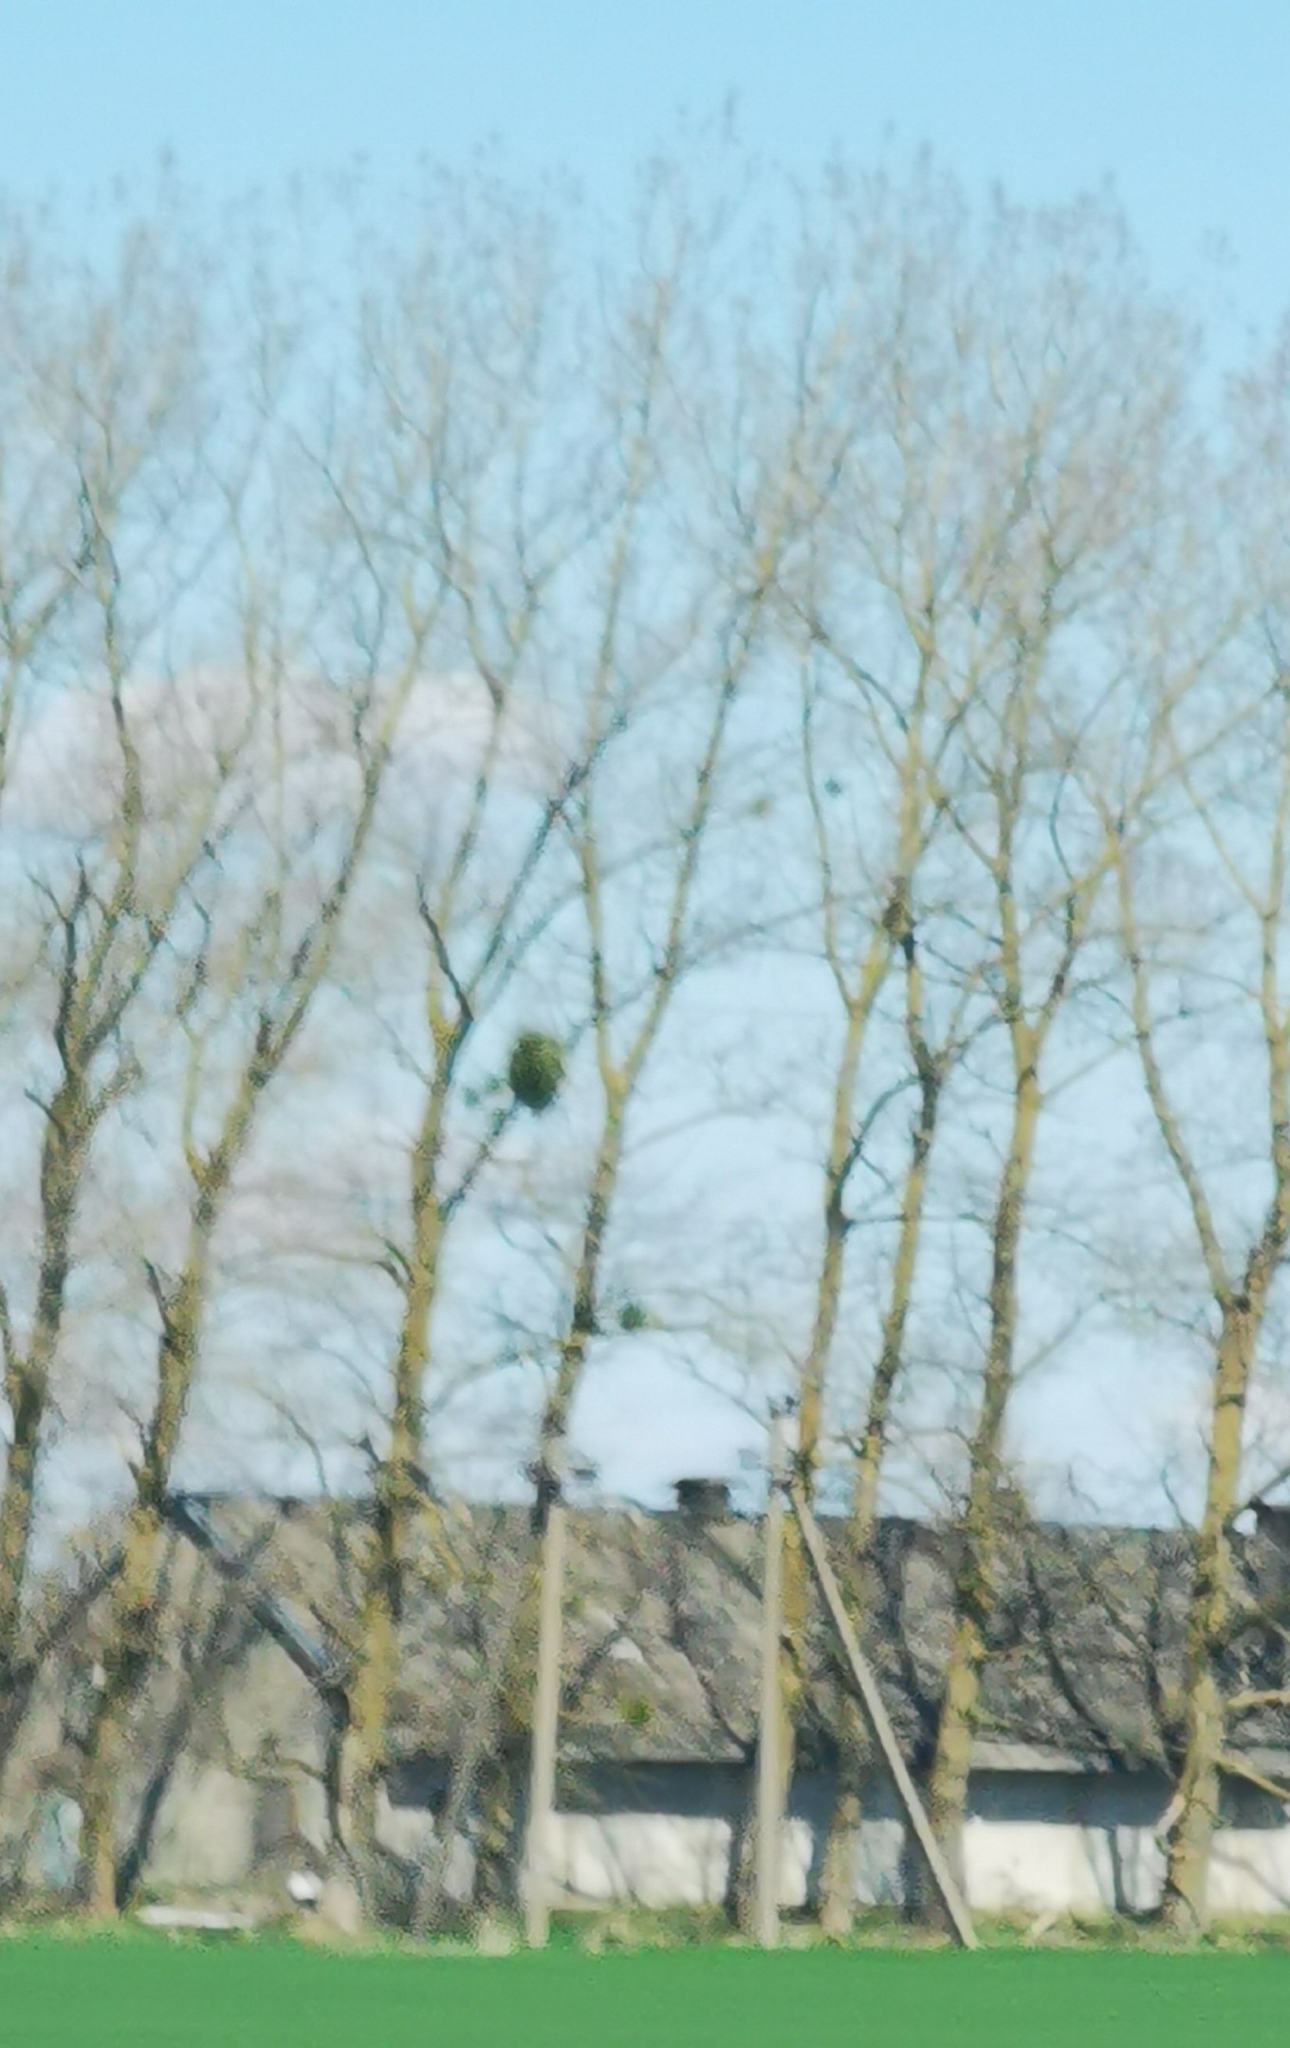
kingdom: Plantae
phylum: Tracheophyta
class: Magnoliopsida
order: Santalales
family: Viscaceae
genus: Viscum
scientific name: Viscum album
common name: Mistletoe
